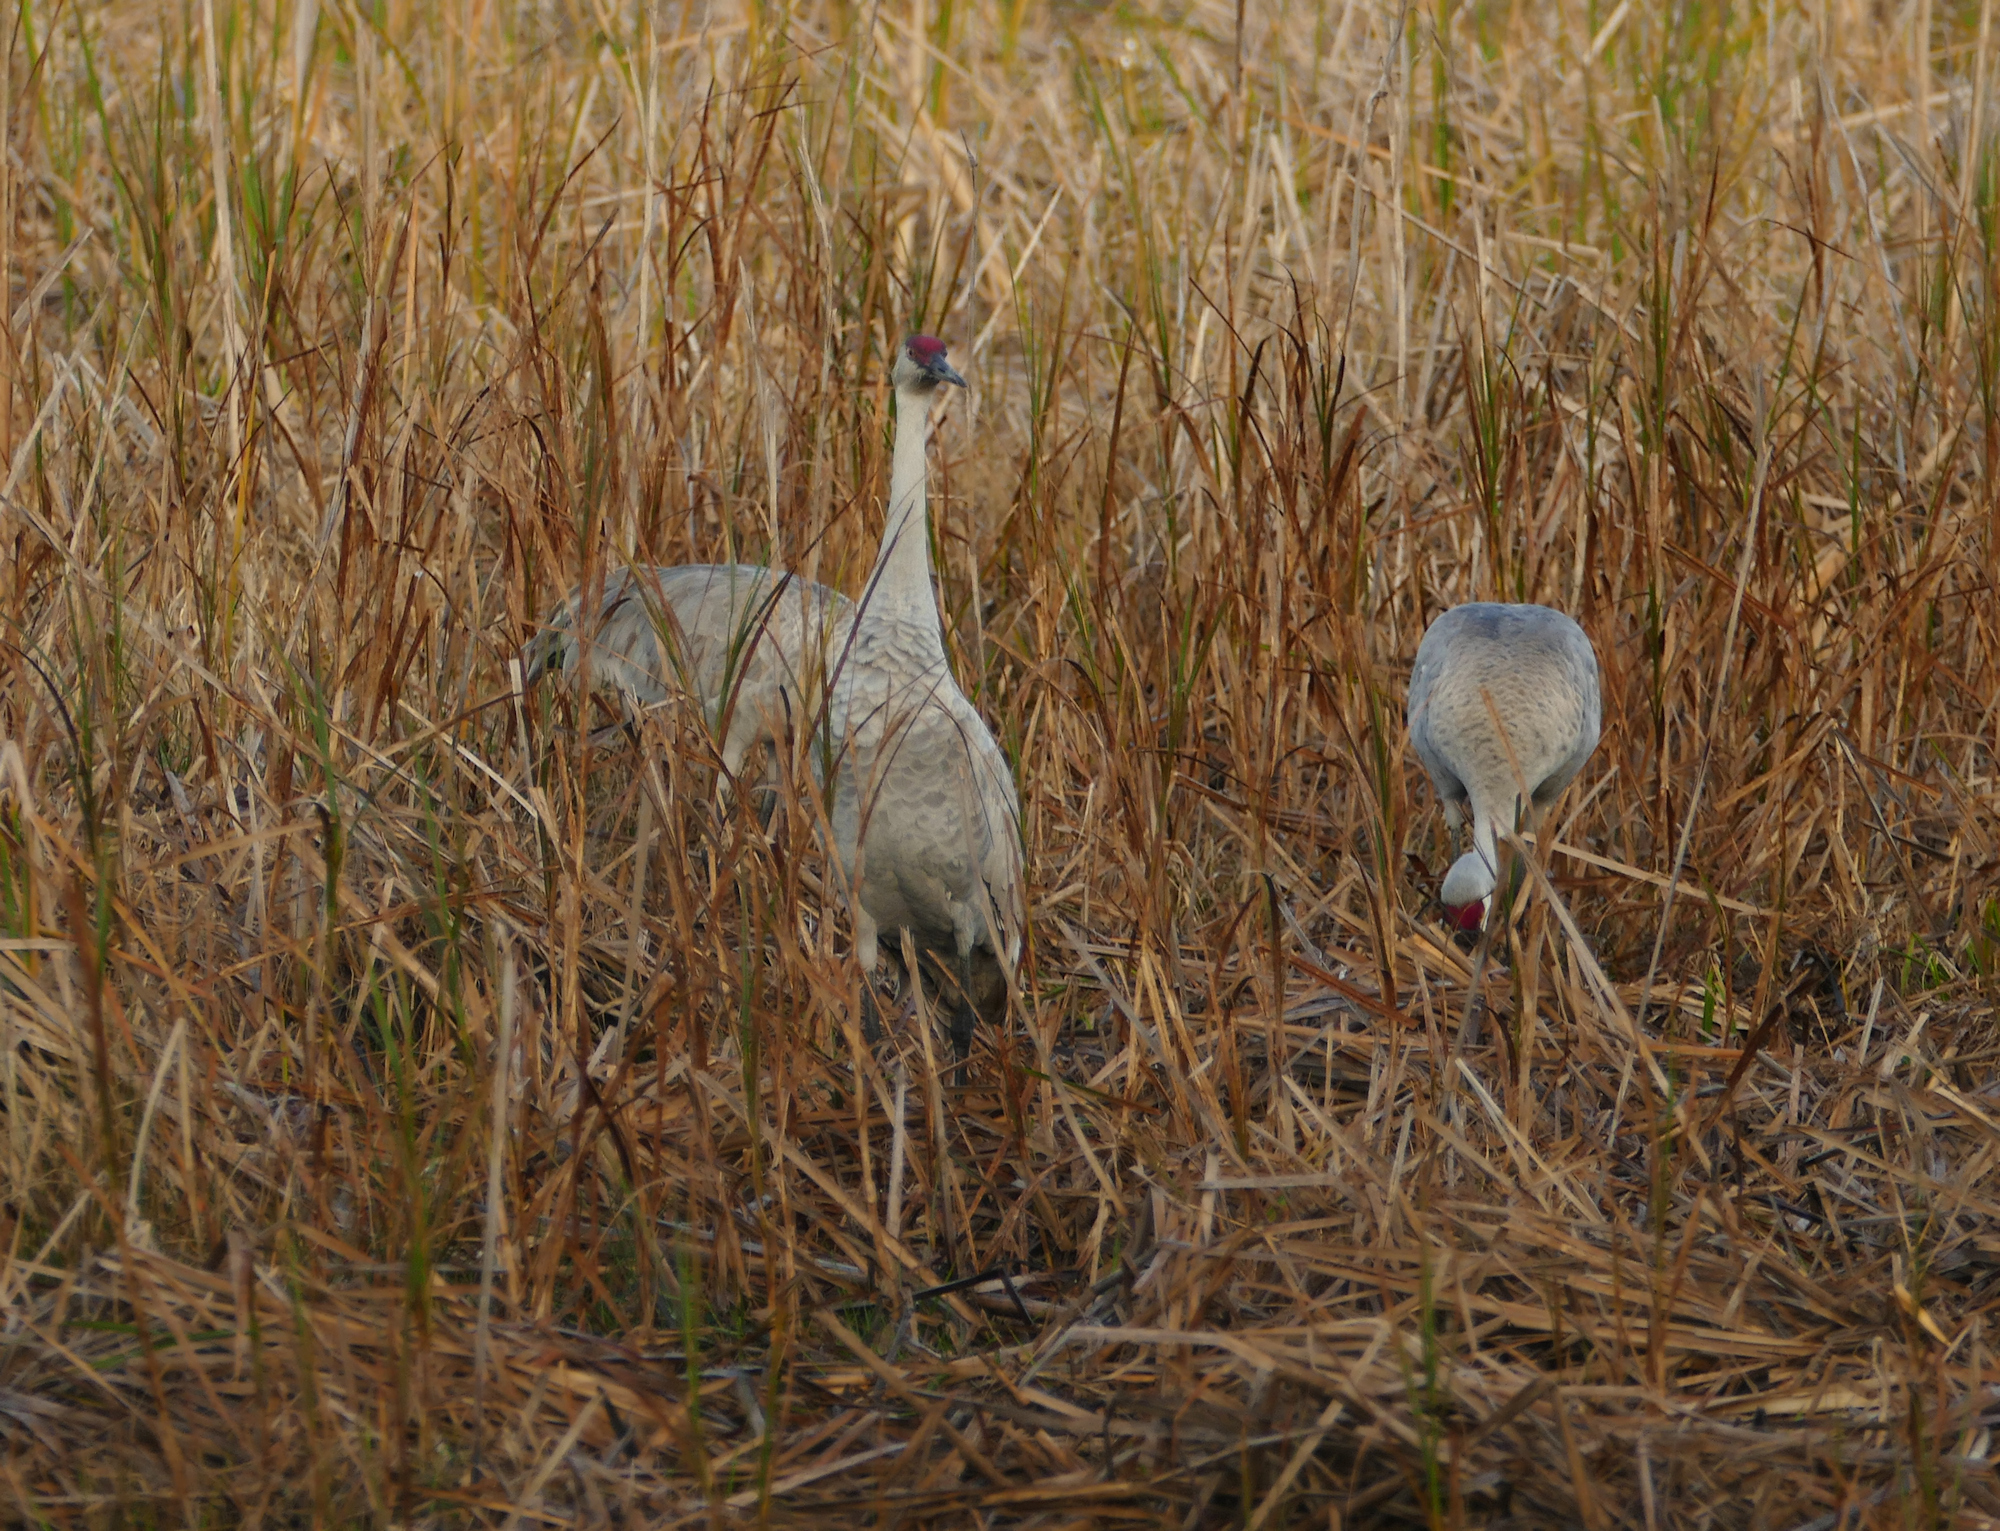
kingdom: Animalia
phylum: Chordata
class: Aves
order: Gruiformes
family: Gruidae
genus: Grus
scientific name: Grus canadensis
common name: Sandhill crane
